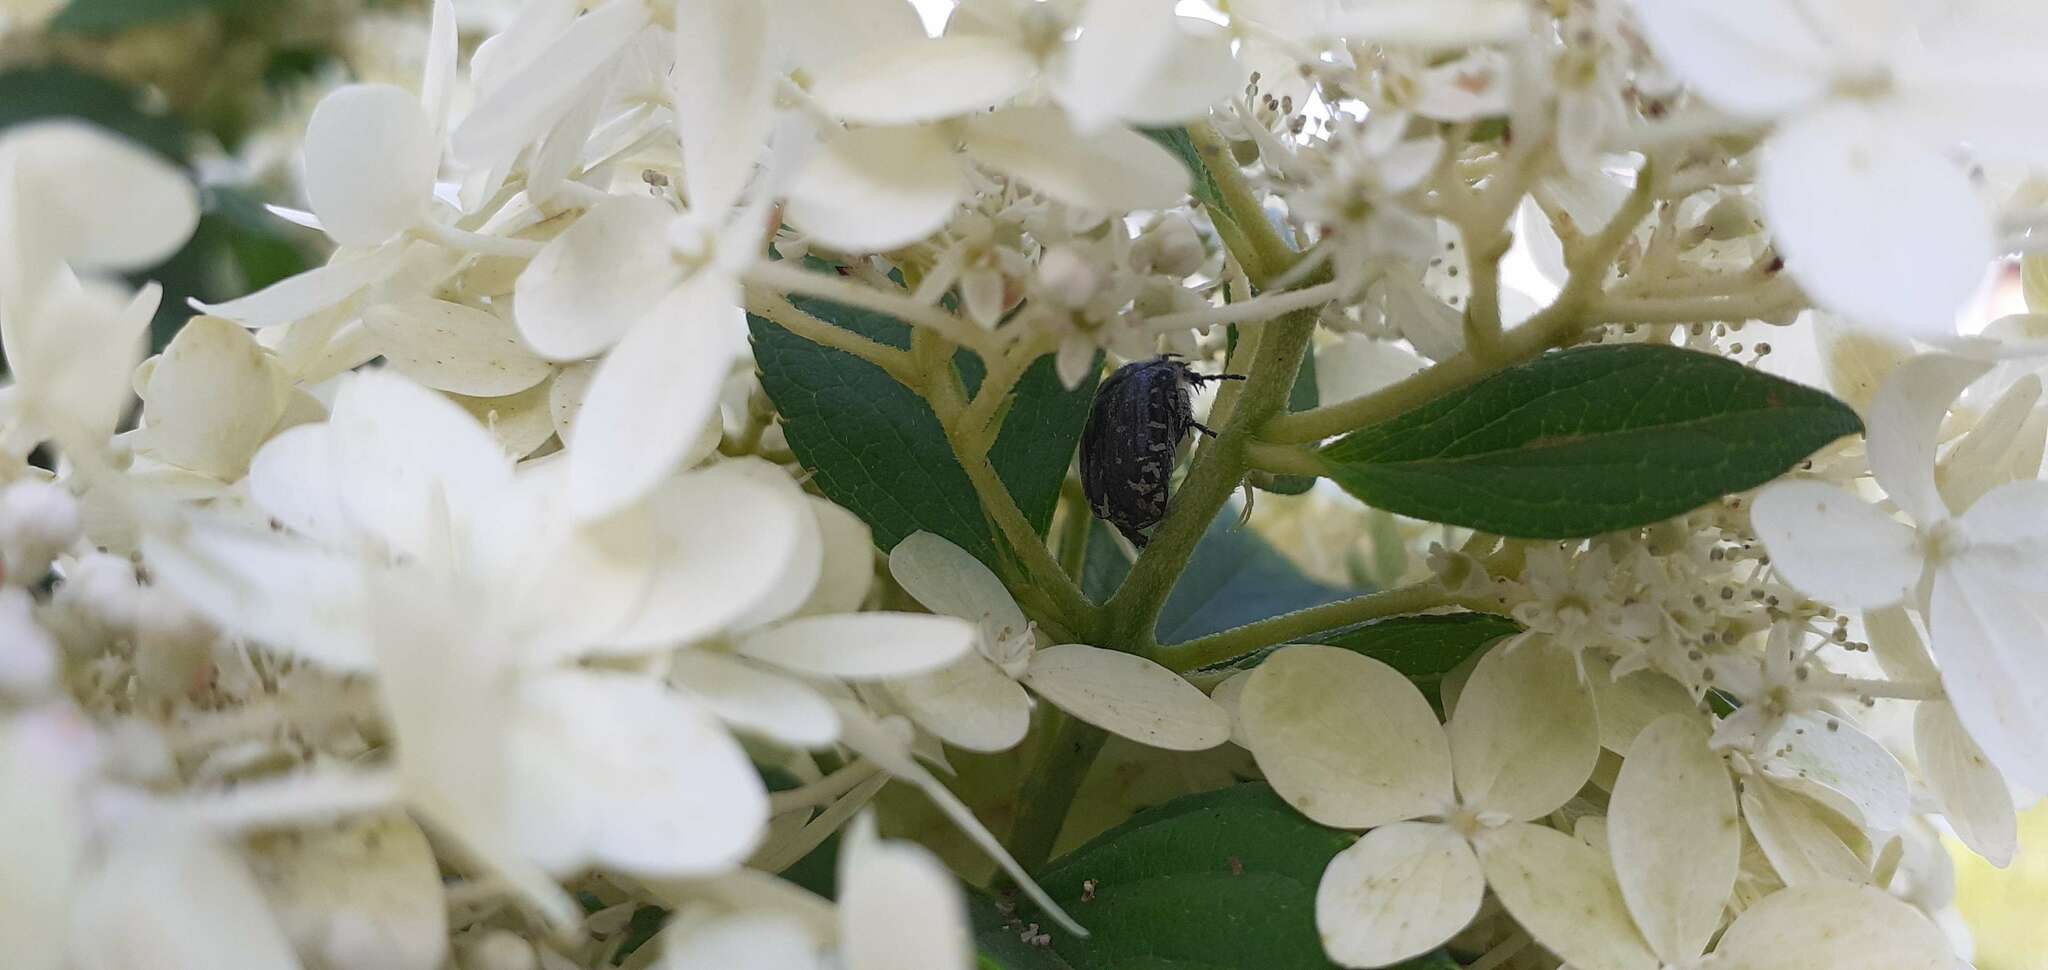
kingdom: Animalia
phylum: Arthropoda
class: Insecta
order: Coleoptera
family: Scarabaeidae
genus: Oxythyrea
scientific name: Oxythyrea funesta
